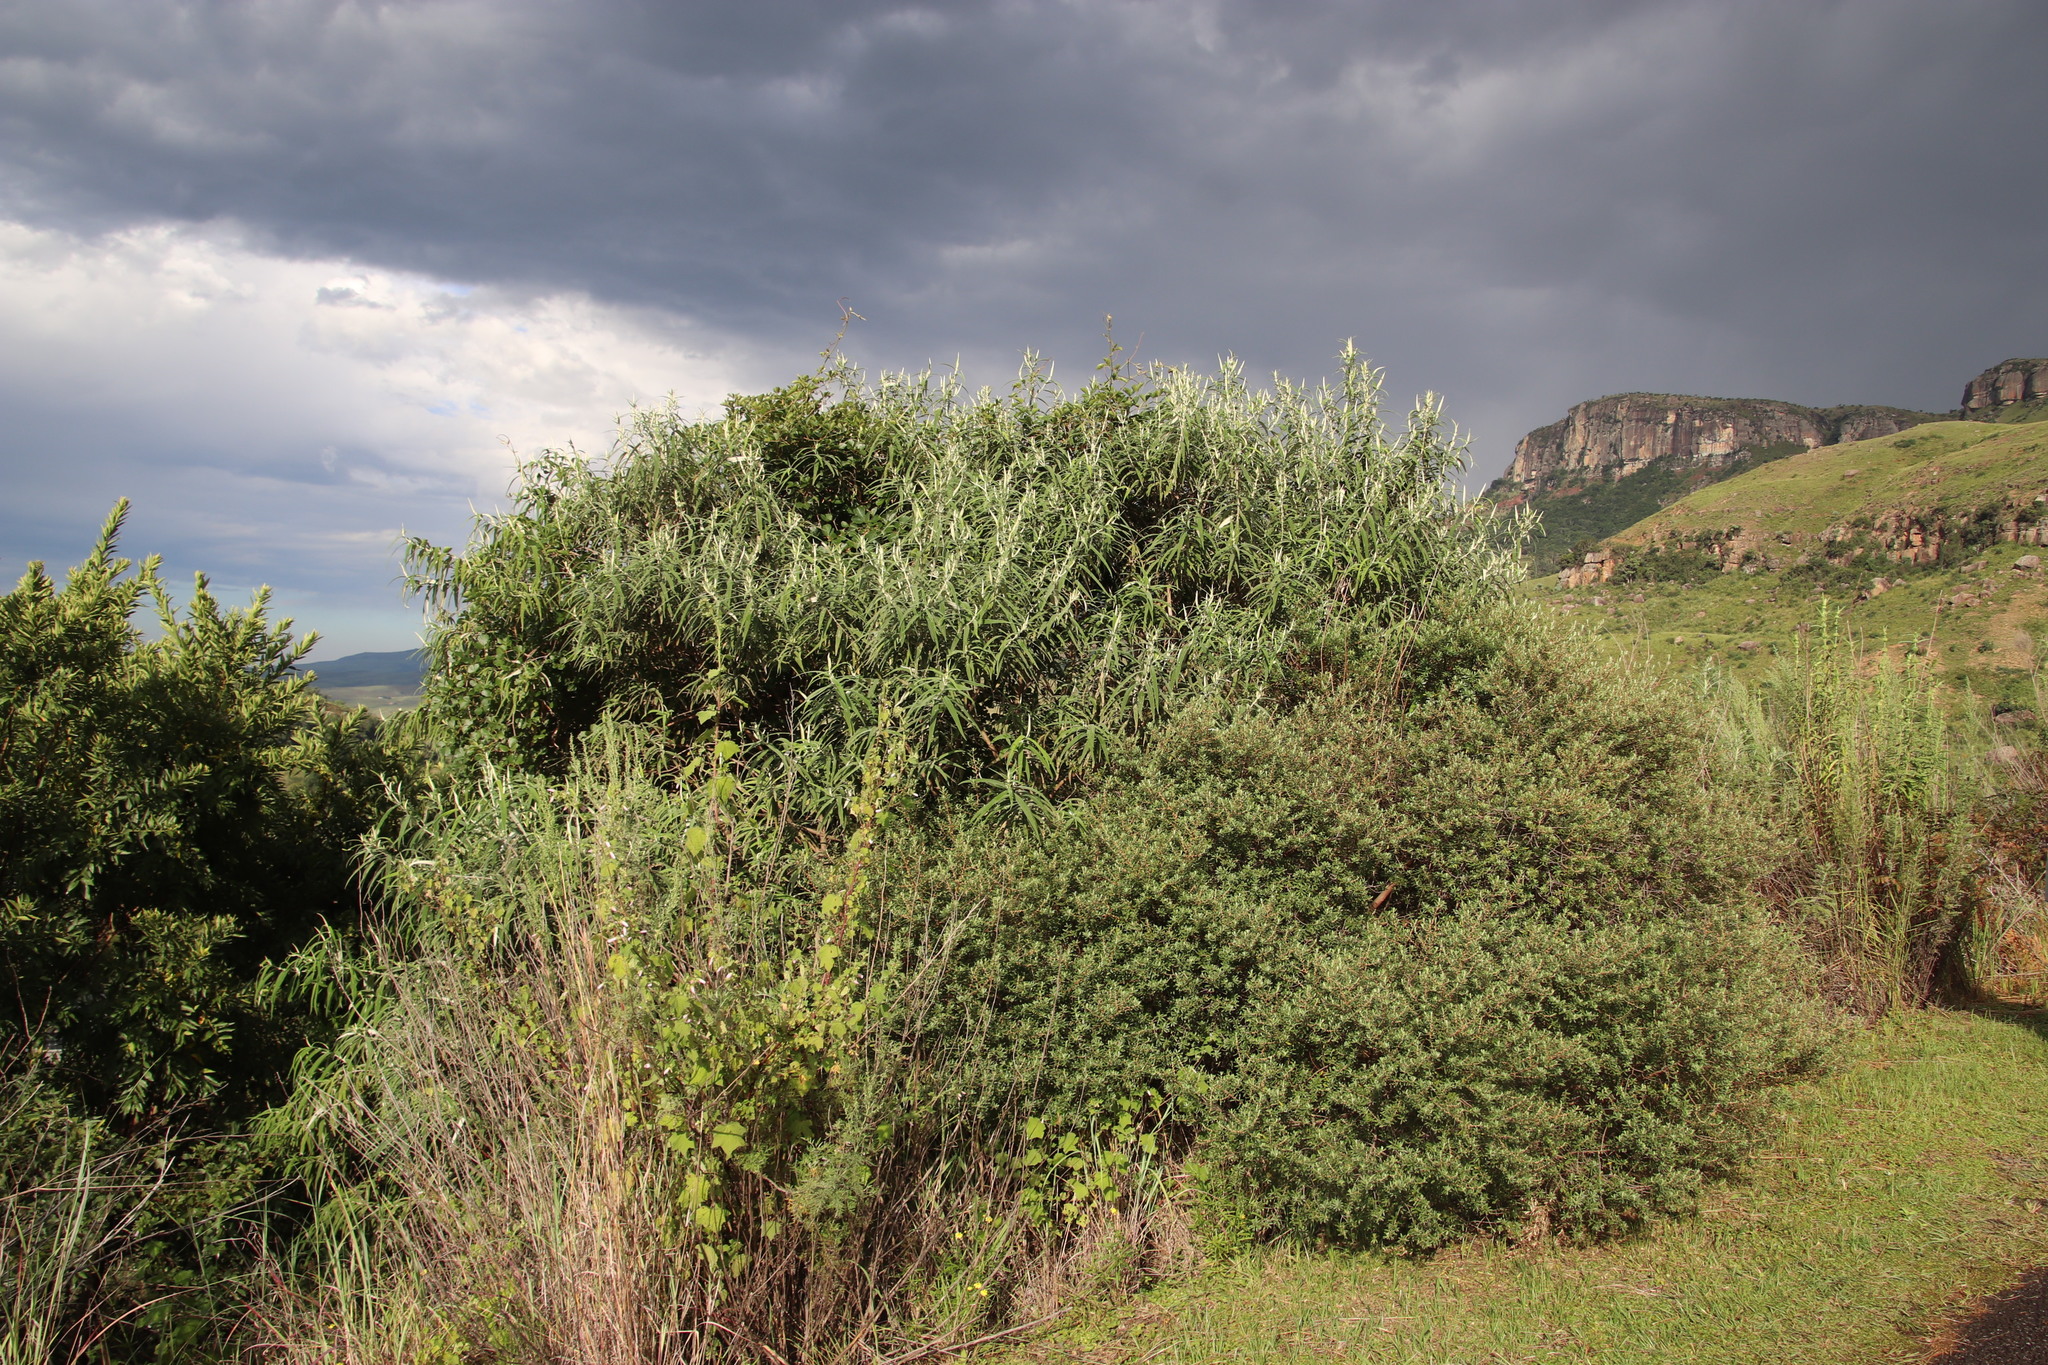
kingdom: Plantae
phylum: Tracheophyta
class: Magnoliopsida
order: Lamiales
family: Scrophulariaceae
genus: Buddleja
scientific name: Buddleja salviifolia
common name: Sagewood
